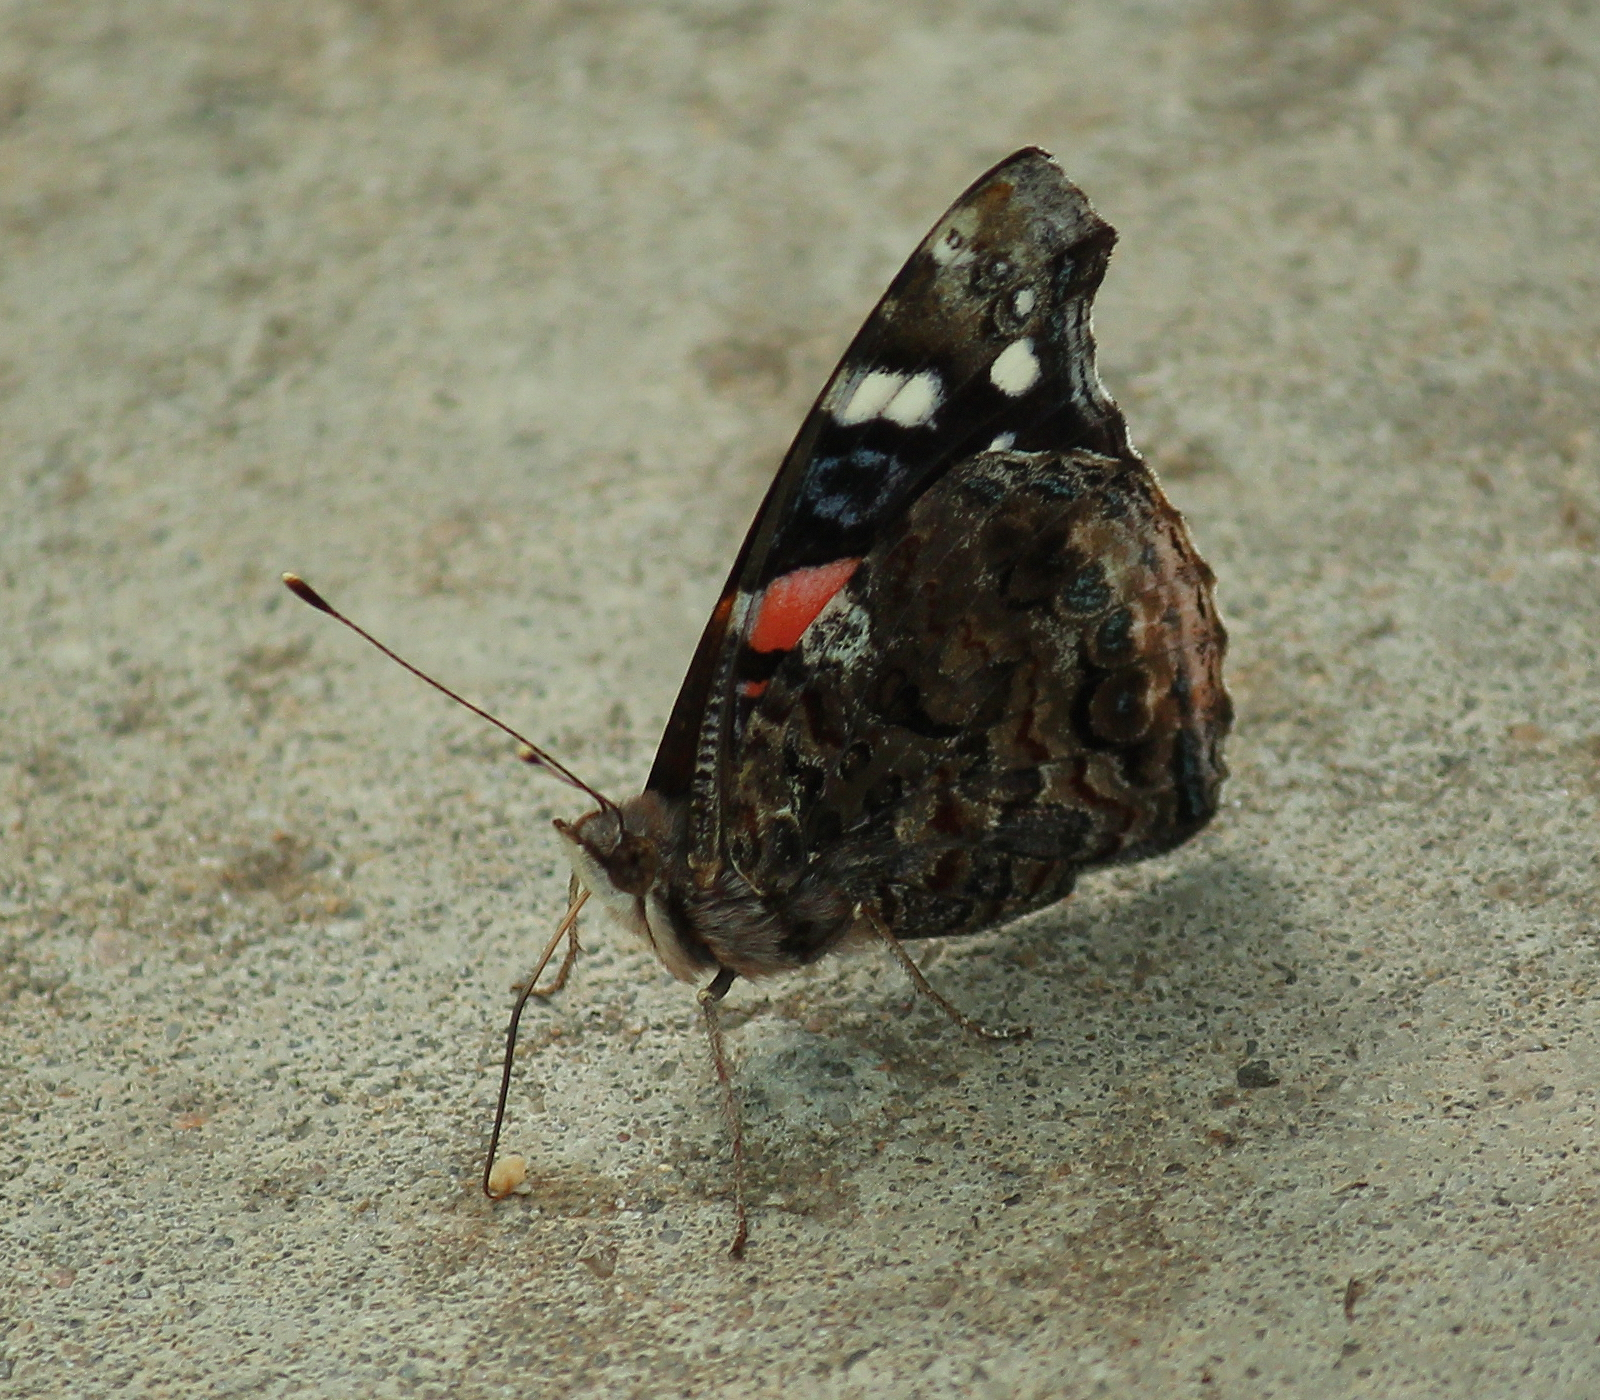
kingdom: Animalia
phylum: Arthropoda
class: Insecta
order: Lepidoptera
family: Nymphalidae
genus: Vanessa
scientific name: Vanessa atalanta
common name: Red admiral
